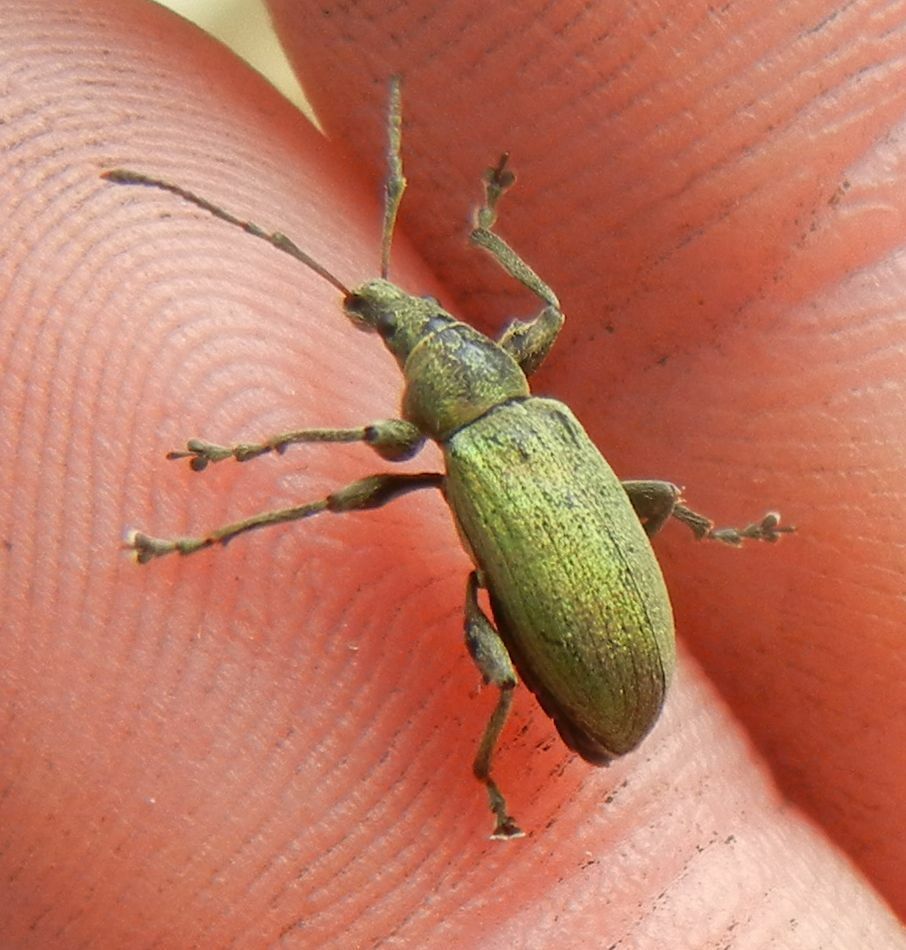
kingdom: Animalia
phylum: Arthropoda
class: Insecta
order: Coleoptera
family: Curculionidae
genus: Phyllobius
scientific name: Phyllobius pomaceus
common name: Green nettle weevil
